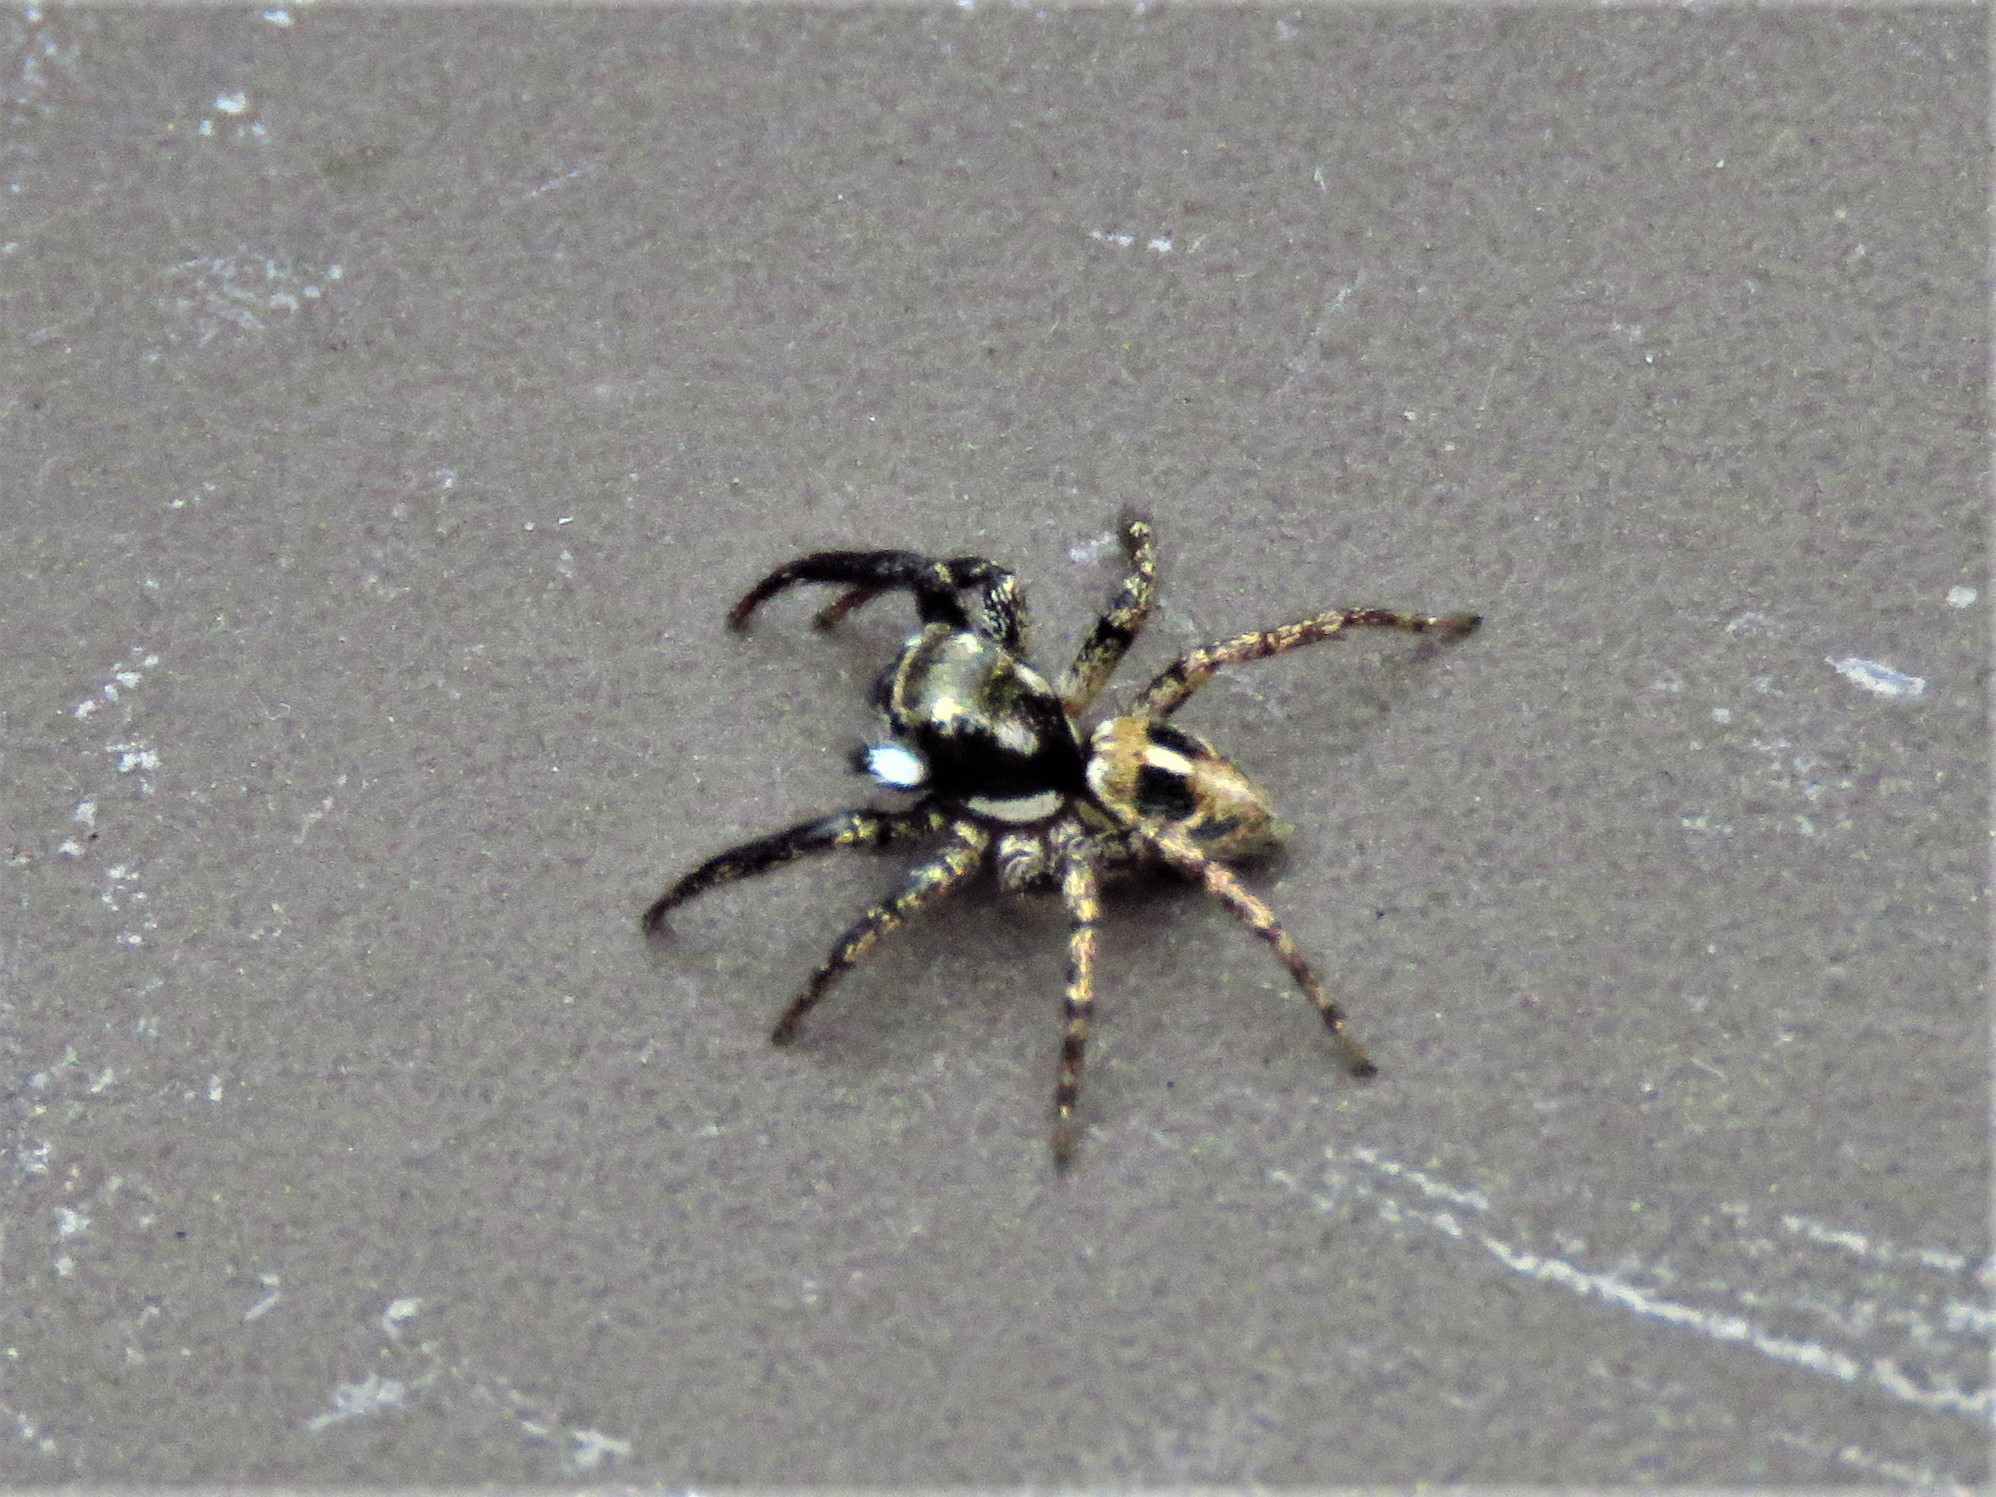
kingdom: Animalia
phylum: Arthropoda
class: Arachnida
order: Araneae
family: Salticidae
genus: Anasaitis
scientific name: Anasaitis canosa
